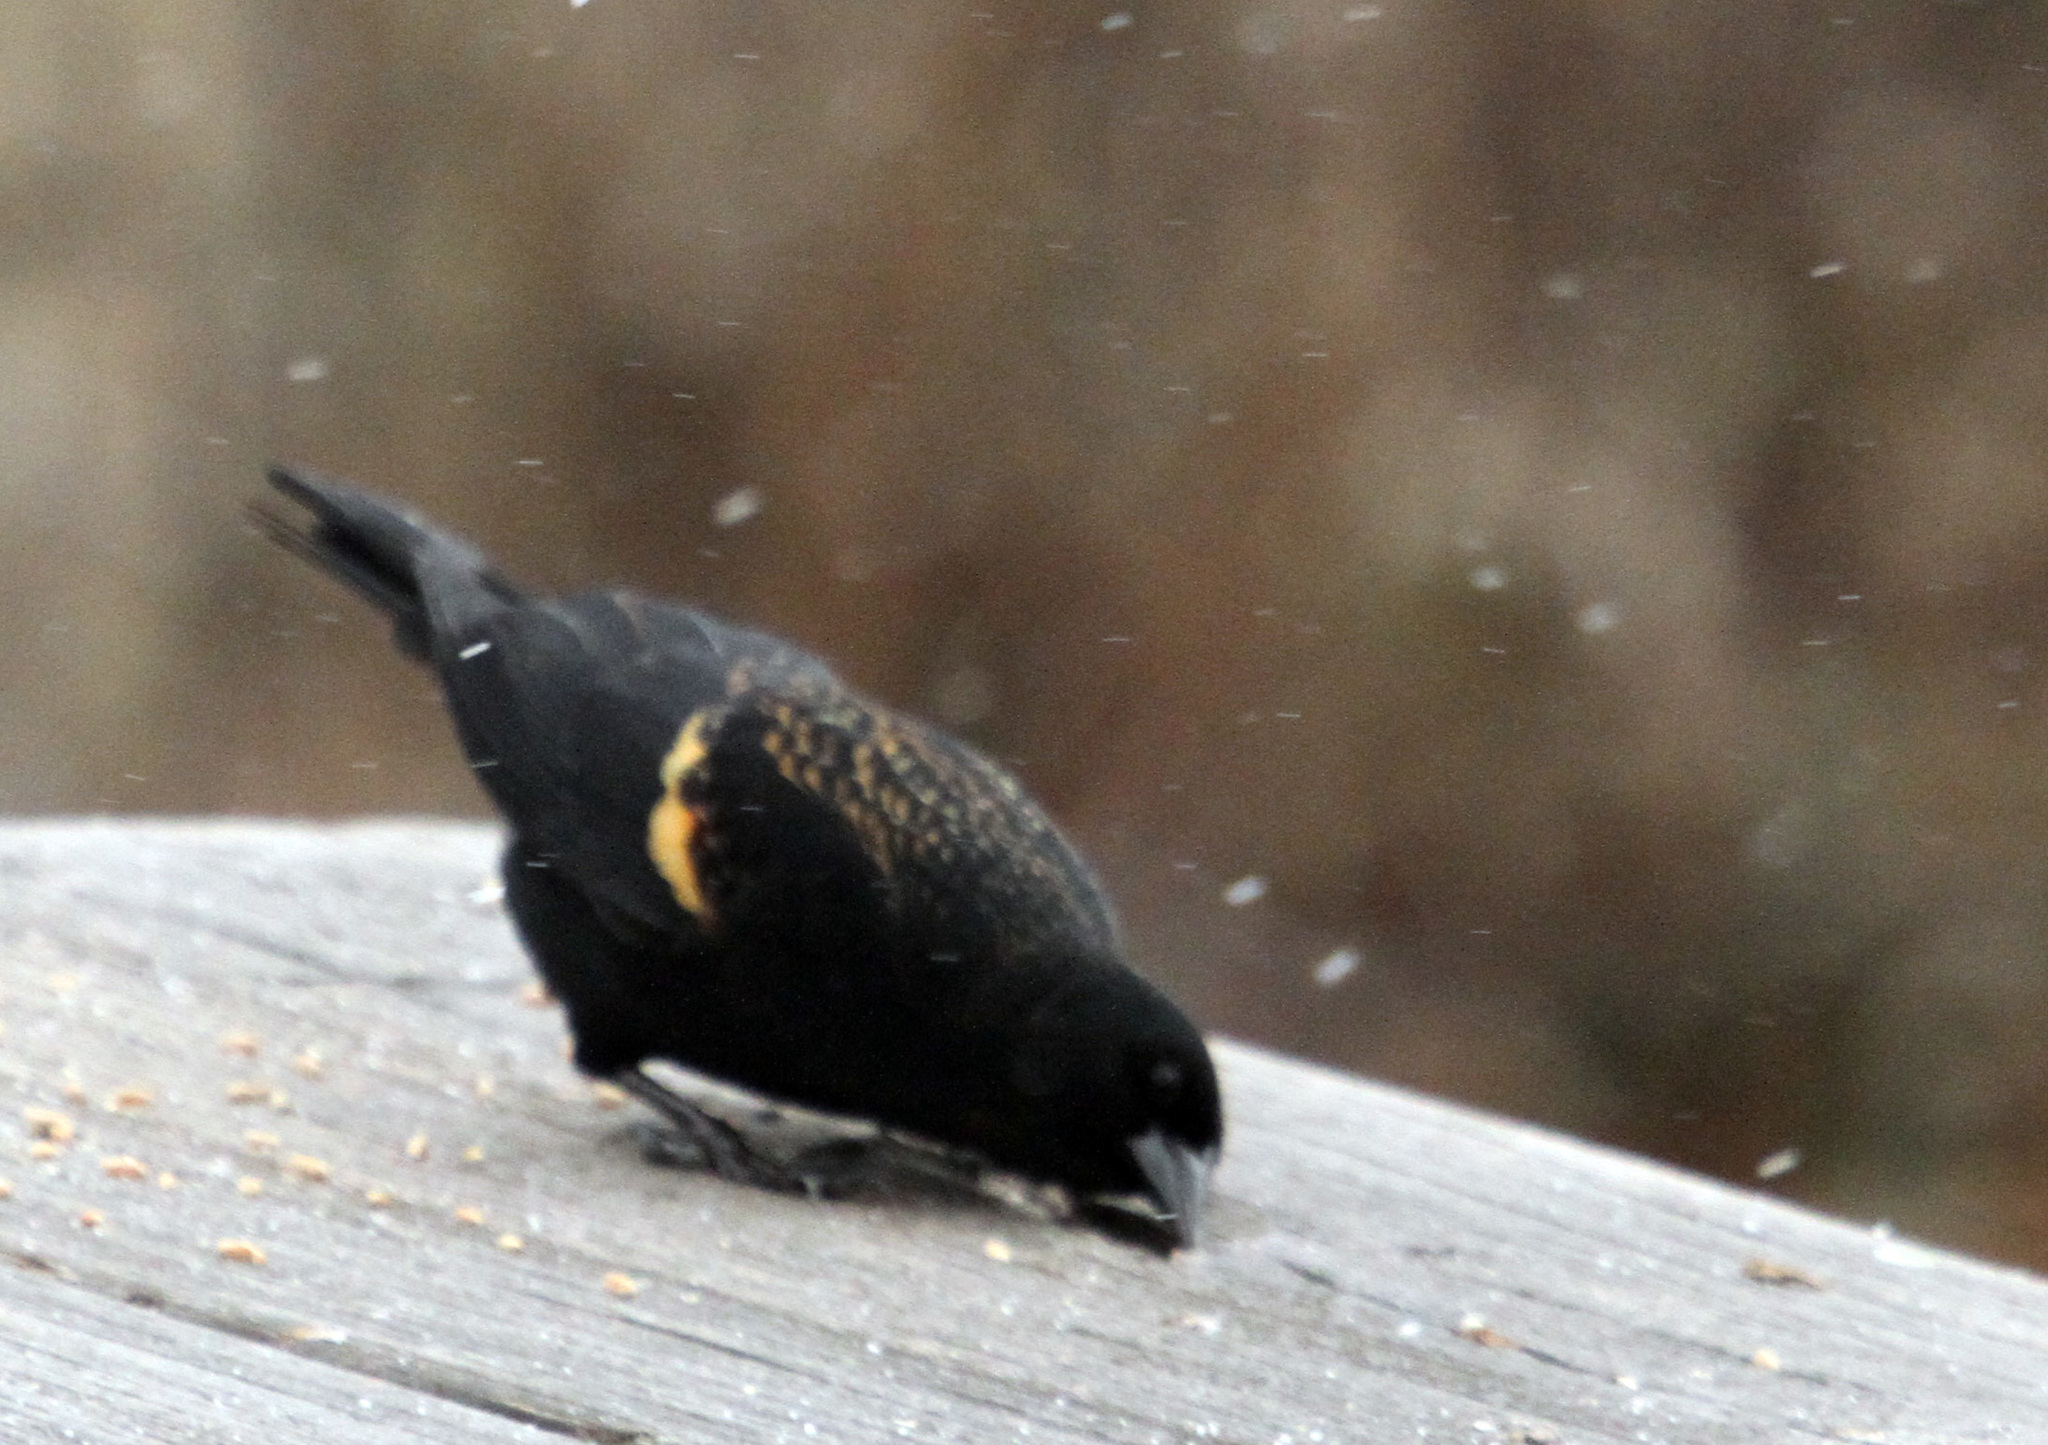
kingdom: Animalia
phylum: Chordata
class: Aves
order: Passeriformes
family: Icteridae
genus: Agelaius
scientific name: Agelaius phoeniceus
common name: Red-winged blackbird
